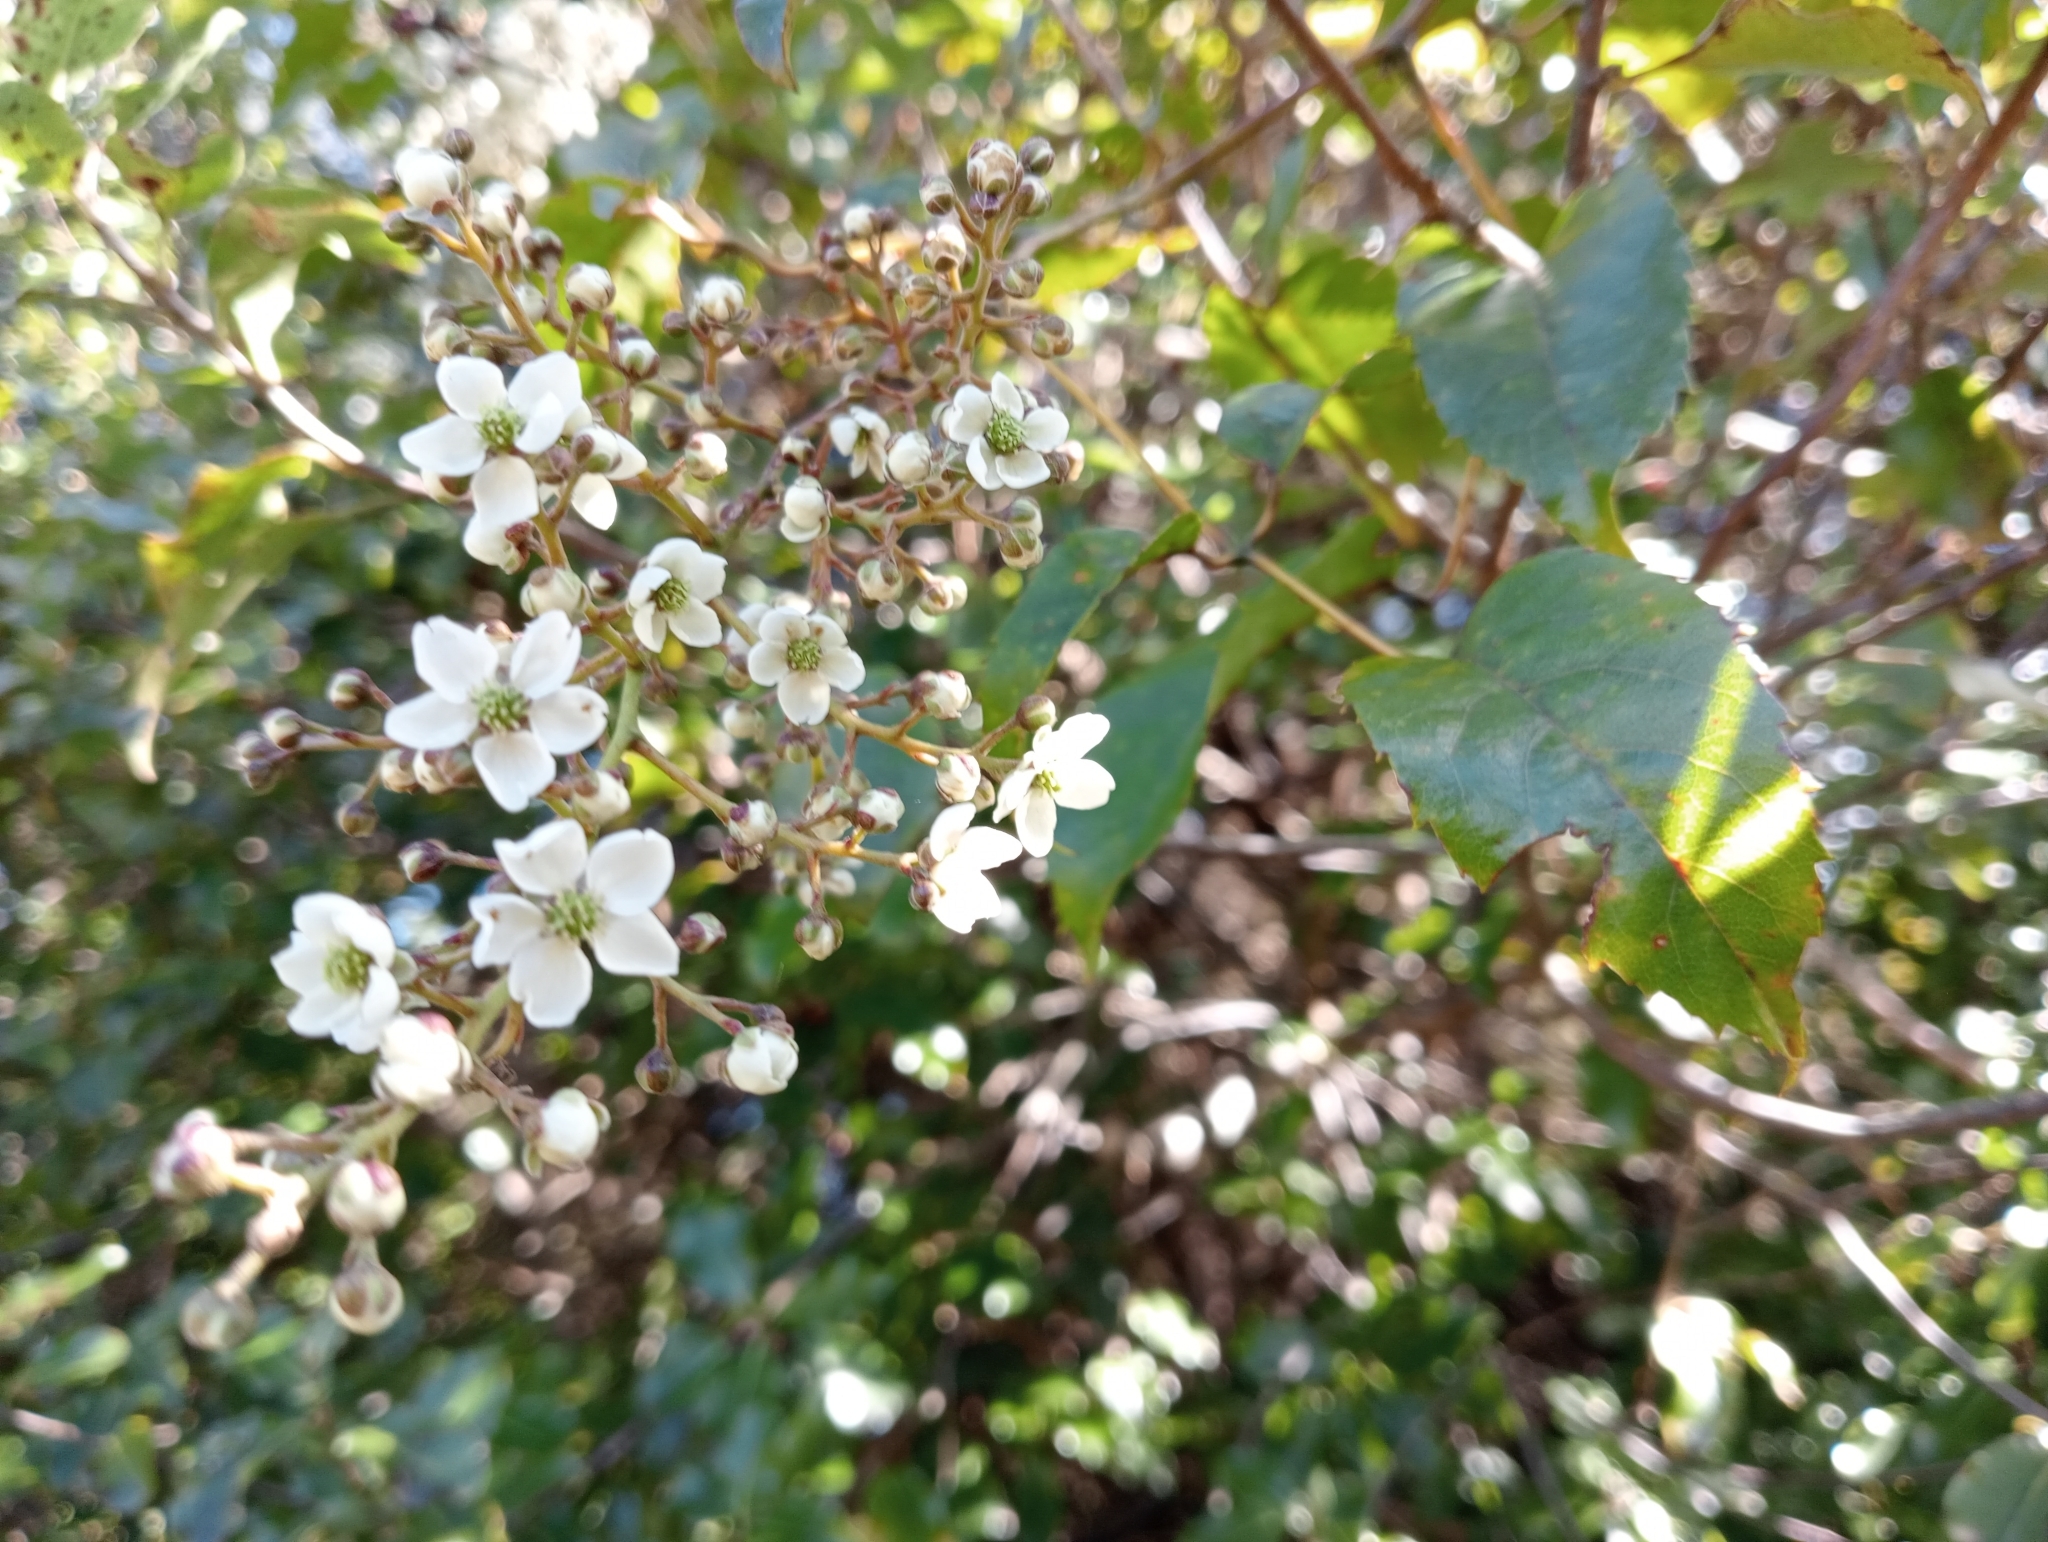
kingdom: Plantae
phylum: Tracheophyta
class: Magnoliopsida
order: Rosales
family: Rosaceae
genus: Rubus
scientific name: Rubus cissoides
